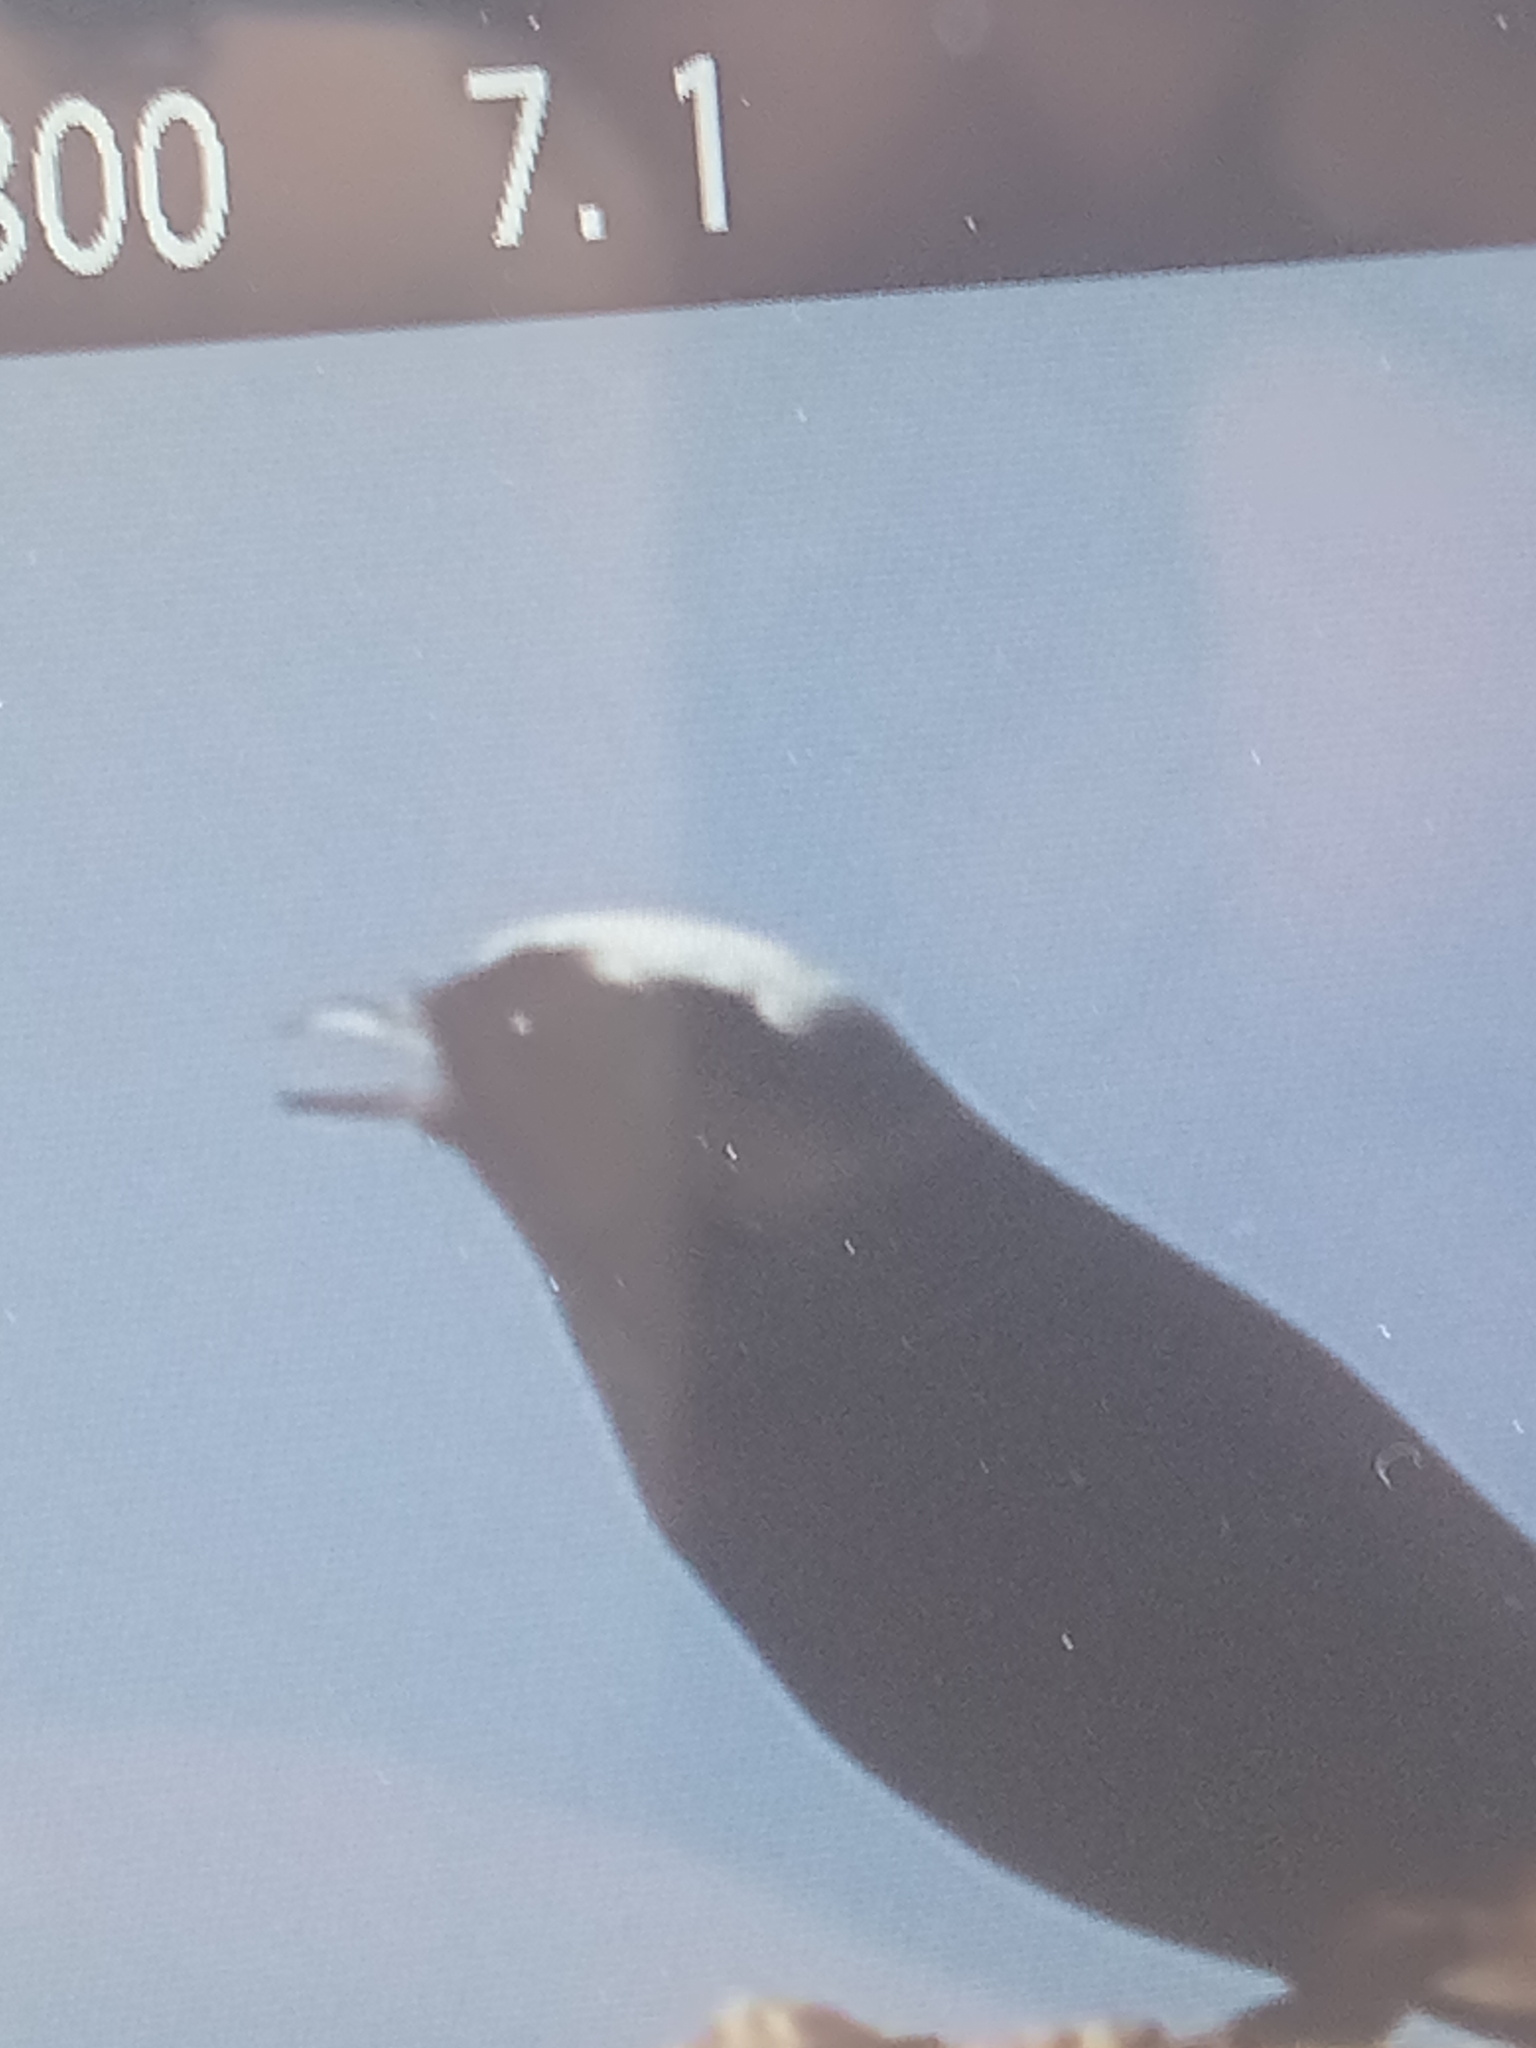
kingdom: Animalia
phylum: Chordata
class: Aves
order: Passeriformes
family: Muscicapidae
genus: Oenanthe
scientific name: Oenanthe leucopyga
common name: White-crowned wheatear
